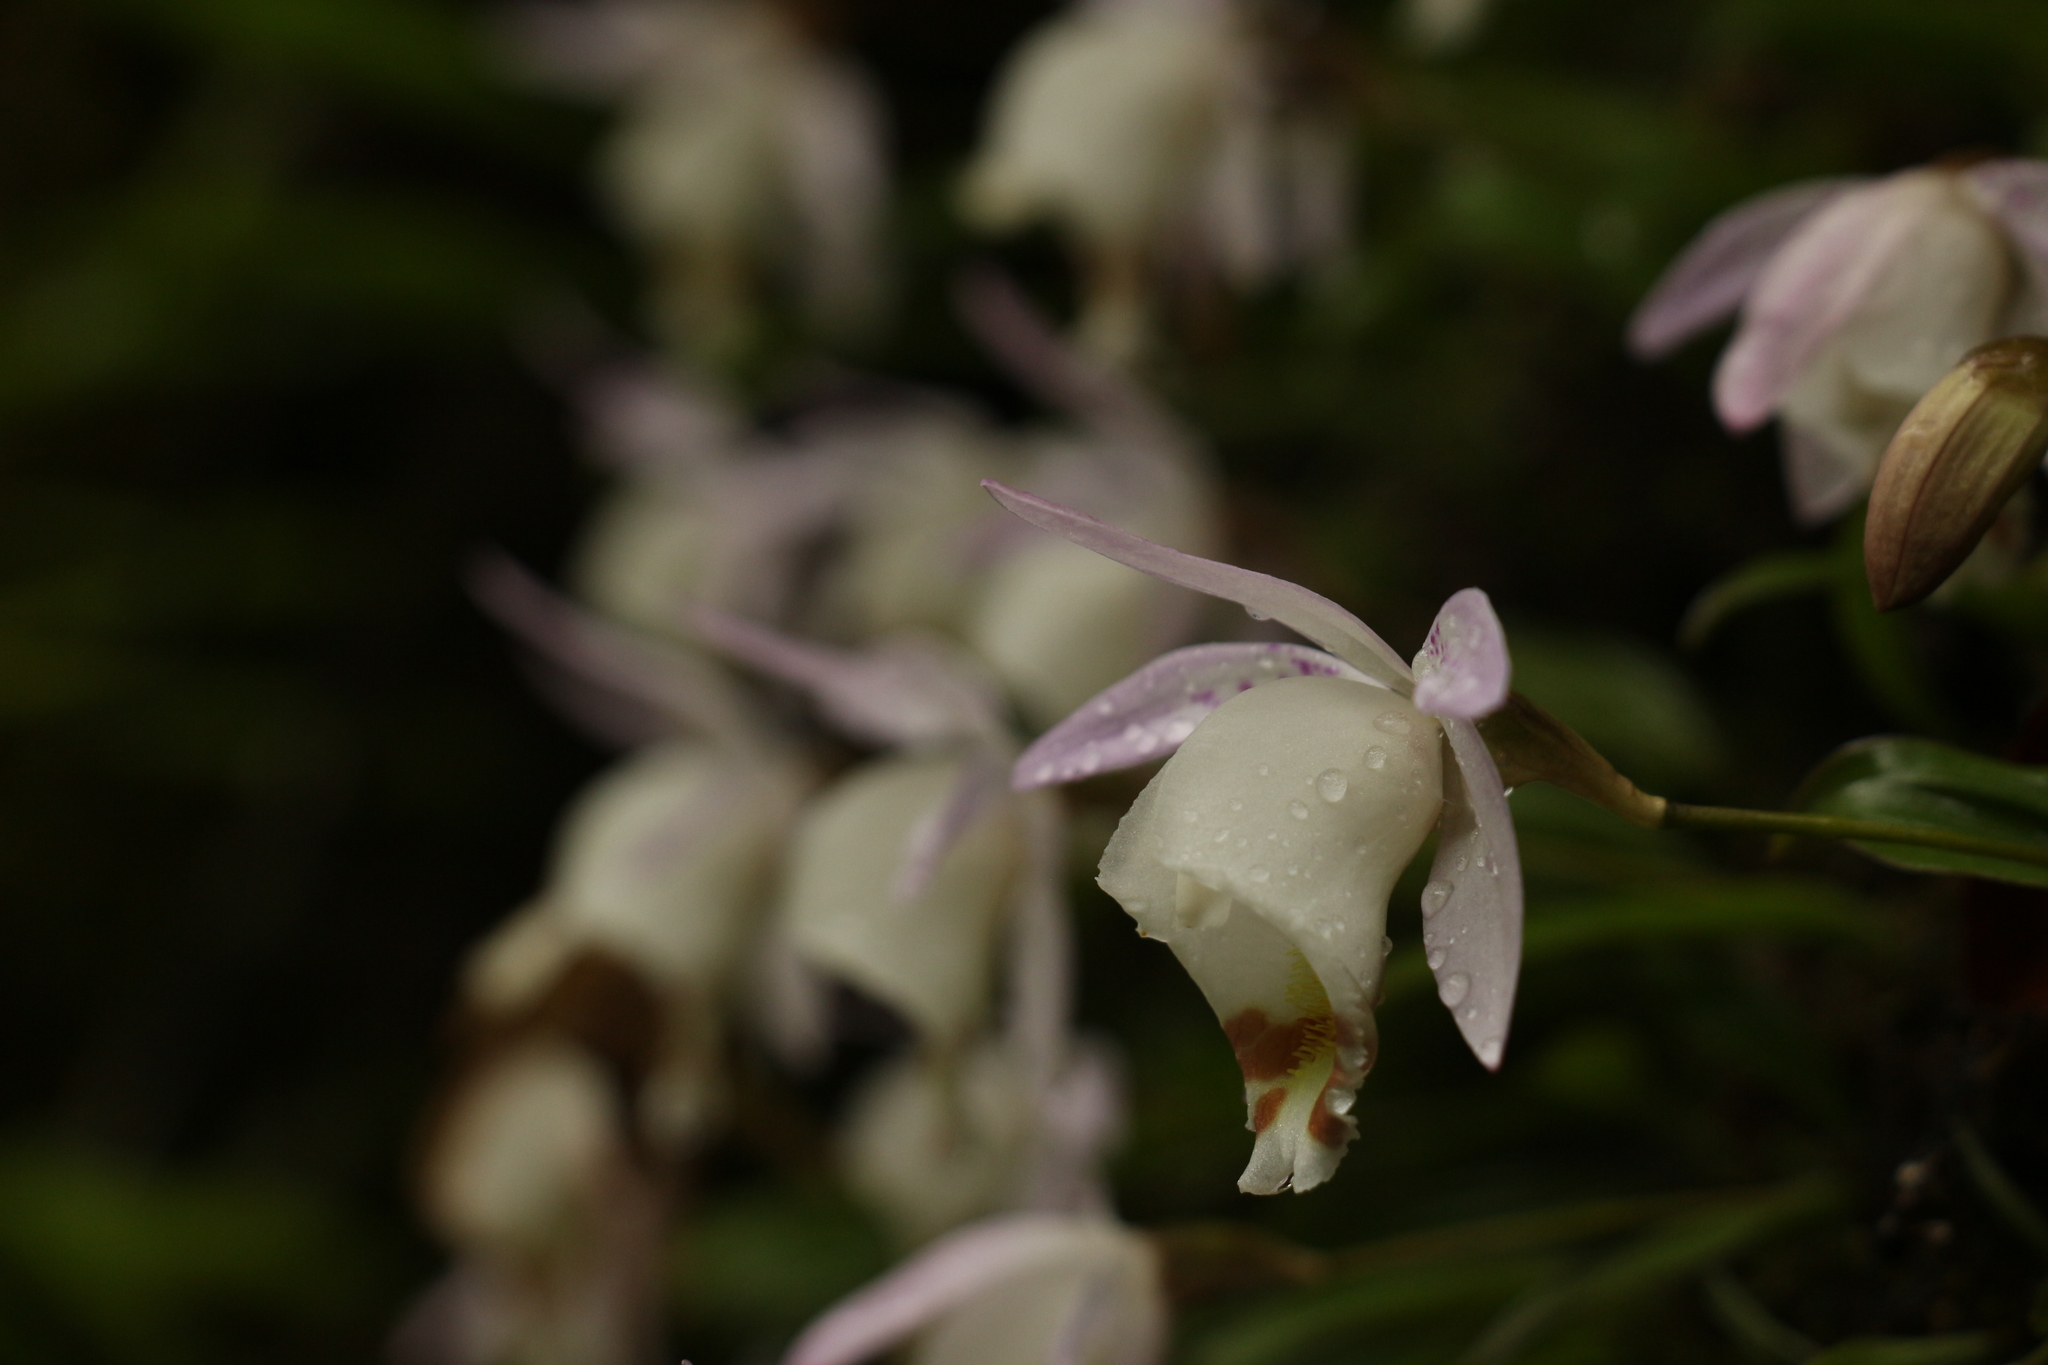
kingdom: Plantae
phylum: Tracheophyta
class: Liliopsida
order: Asparagales
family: Orchidaceae
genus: Pleione
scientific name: Pleione hookeriana
